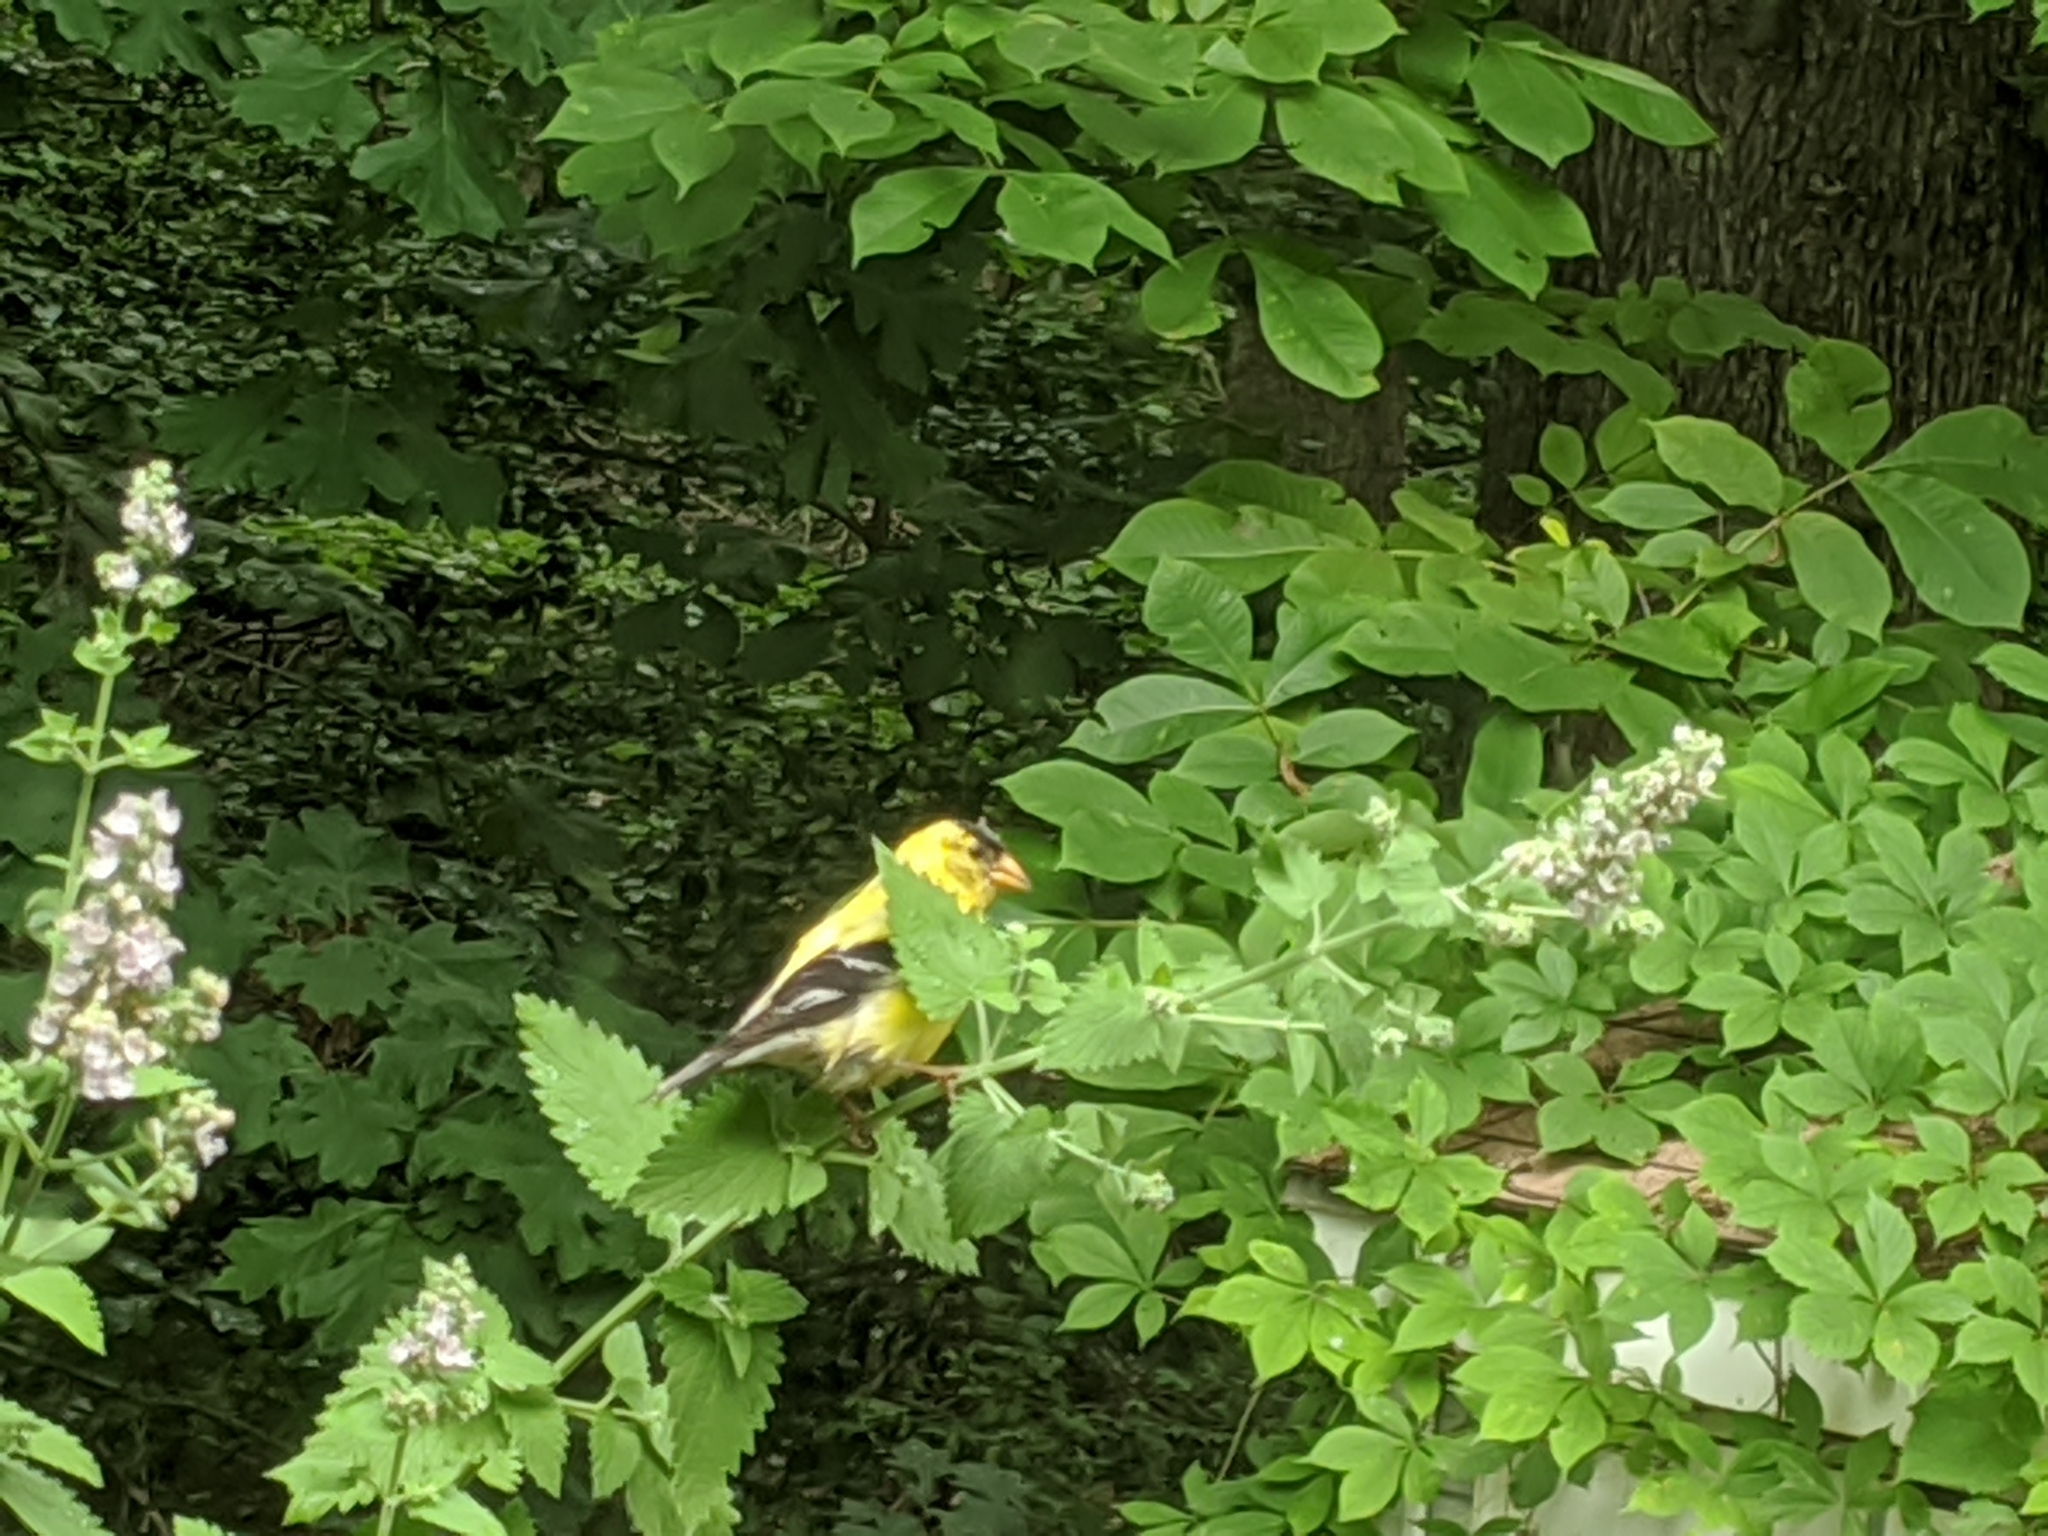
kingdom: Animalia
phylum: Chordata
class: Aves
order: Passeriformes
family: Fringillidae
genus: Spinus
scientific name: Spinus tristis
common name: American goldfinch
